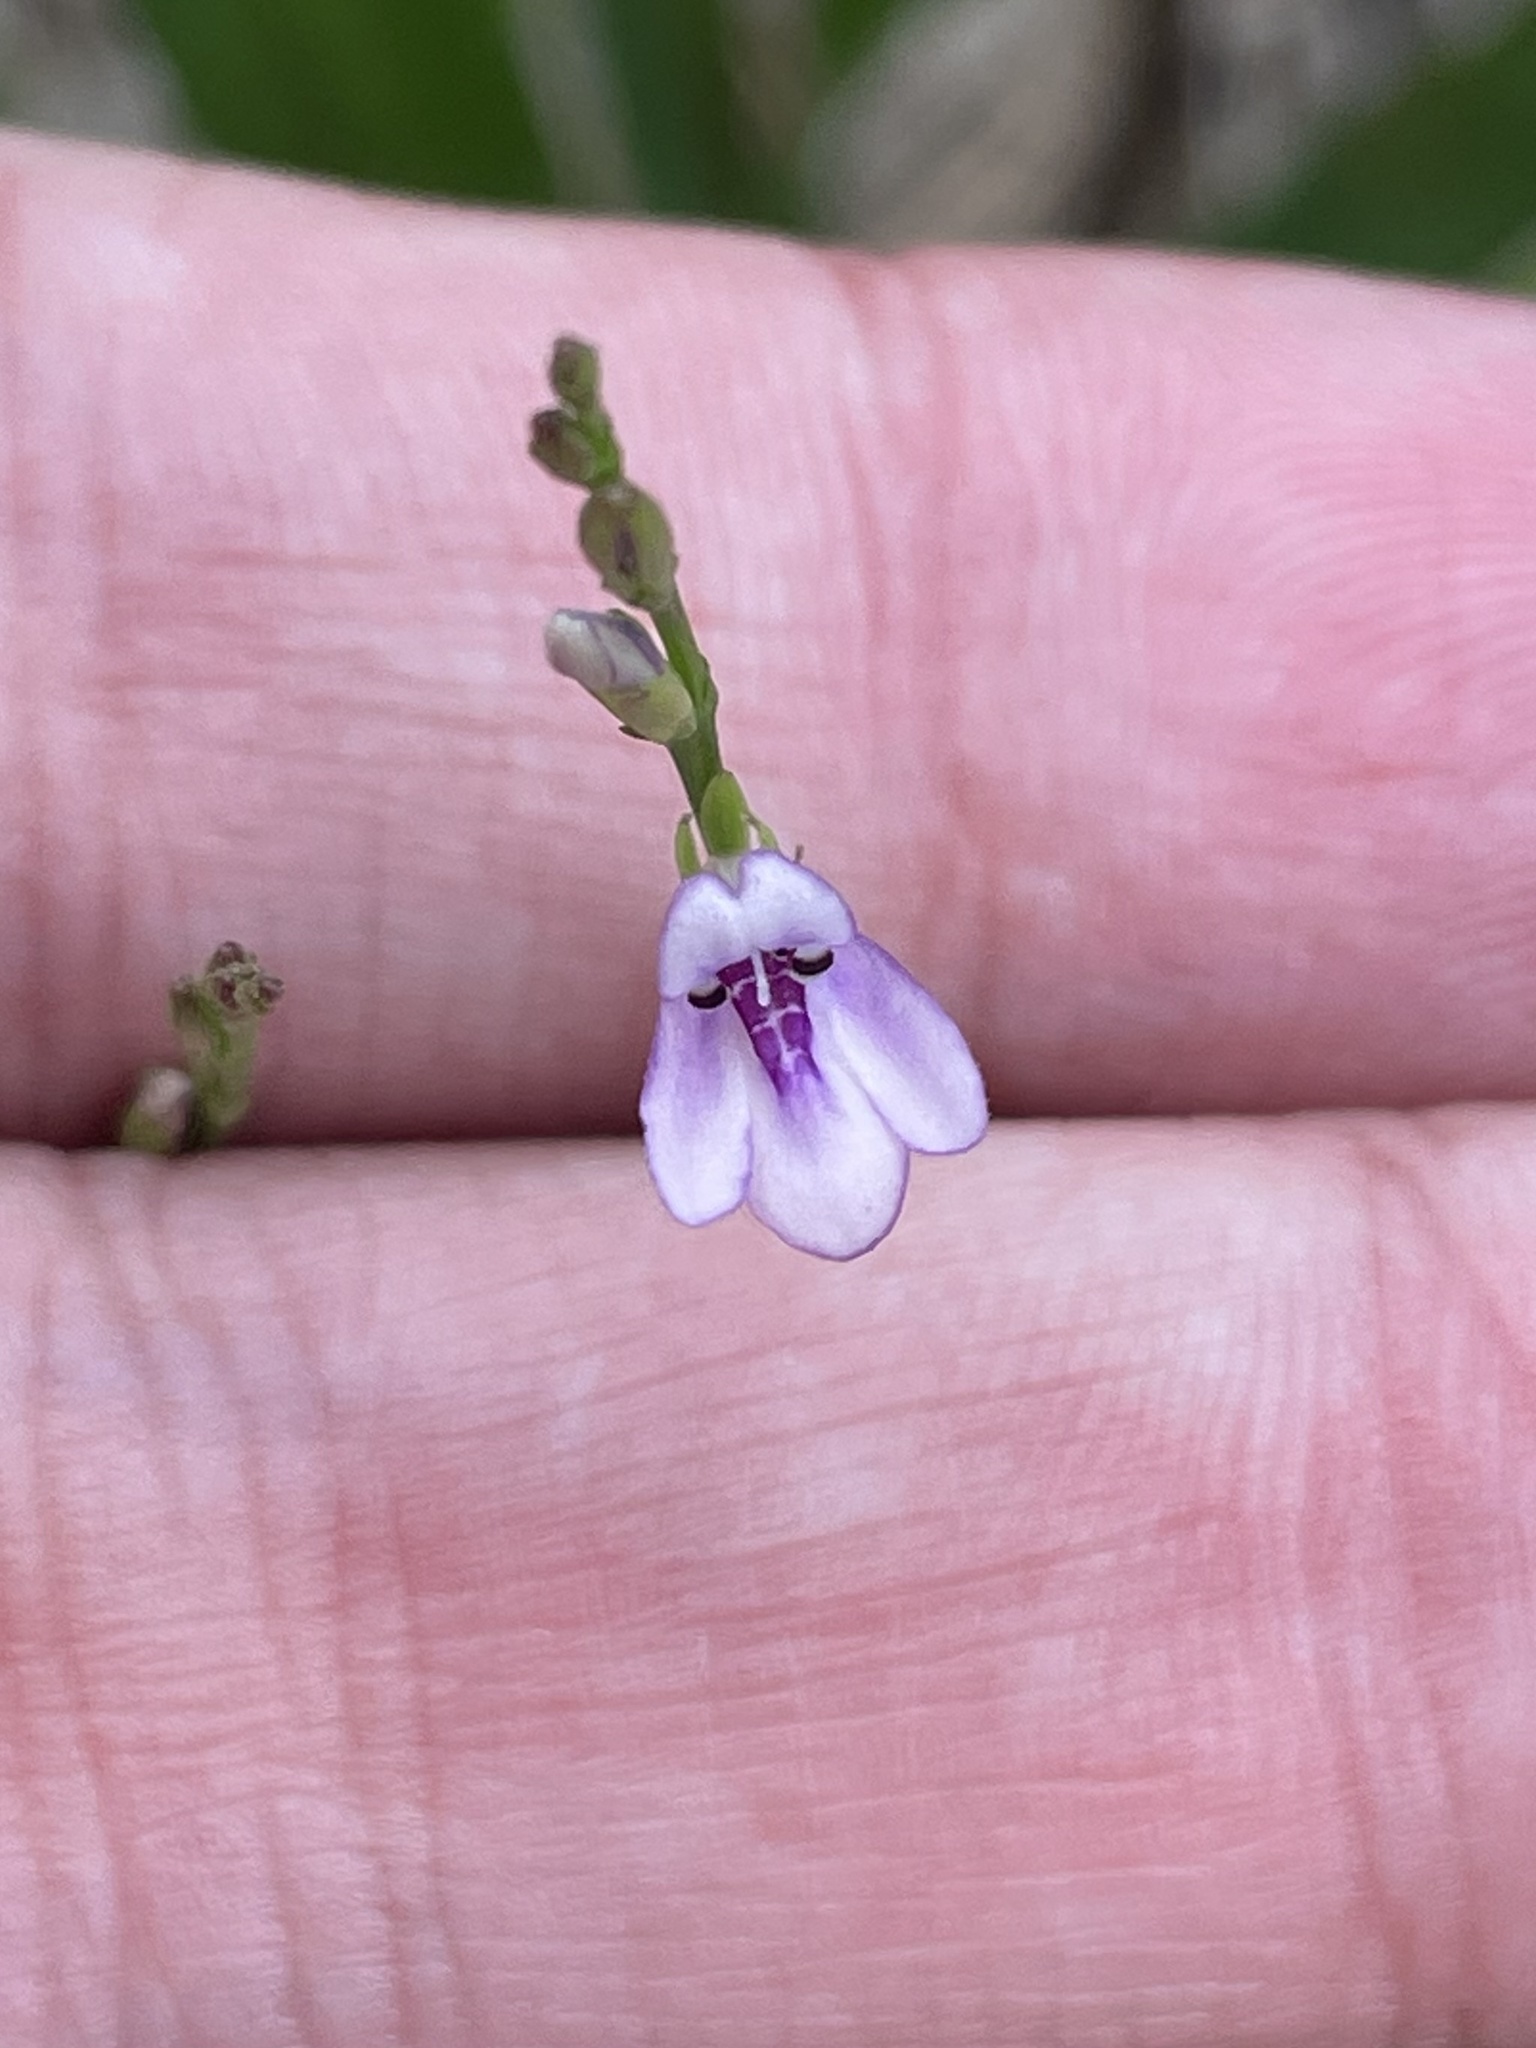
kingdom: Plantae
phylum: Tracheophyta
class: Magnoliopsida
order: Lamiales
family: Acanthaceae
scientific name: Acanthaceae
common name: Acanthaceae
